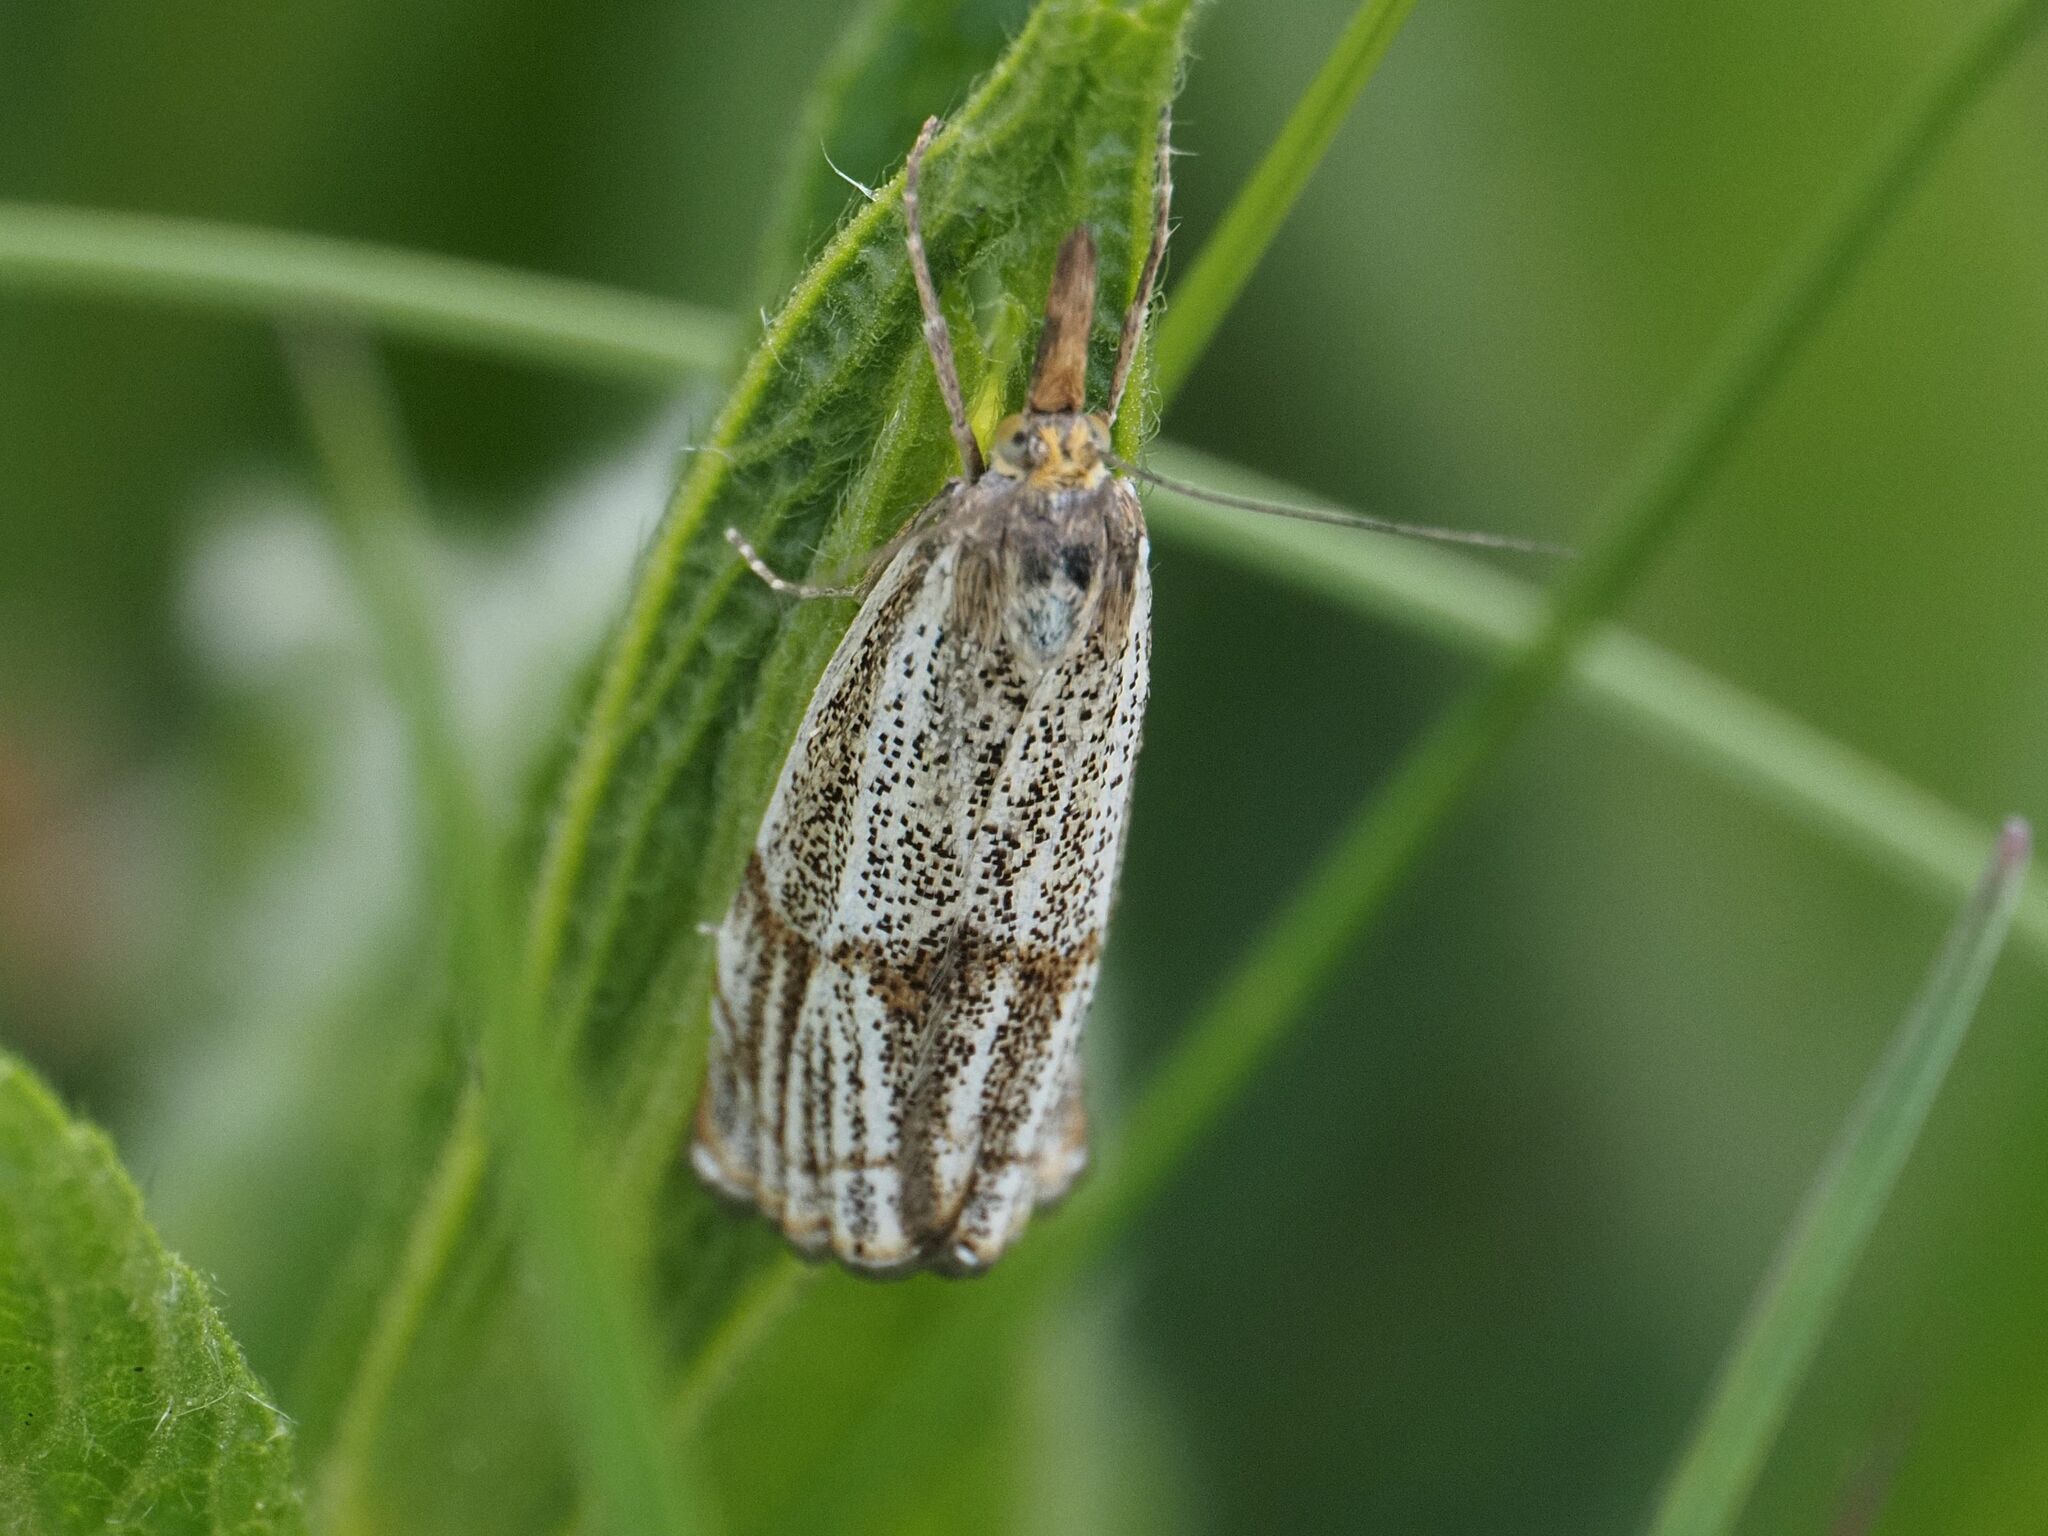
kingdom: Animalia
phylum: Arthropoda
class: Insecta
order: Lepidoptera
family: Crambidae
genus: Thisanotia
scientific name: Thisanotia chrysonuchella
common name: Powdered grass-veneer
